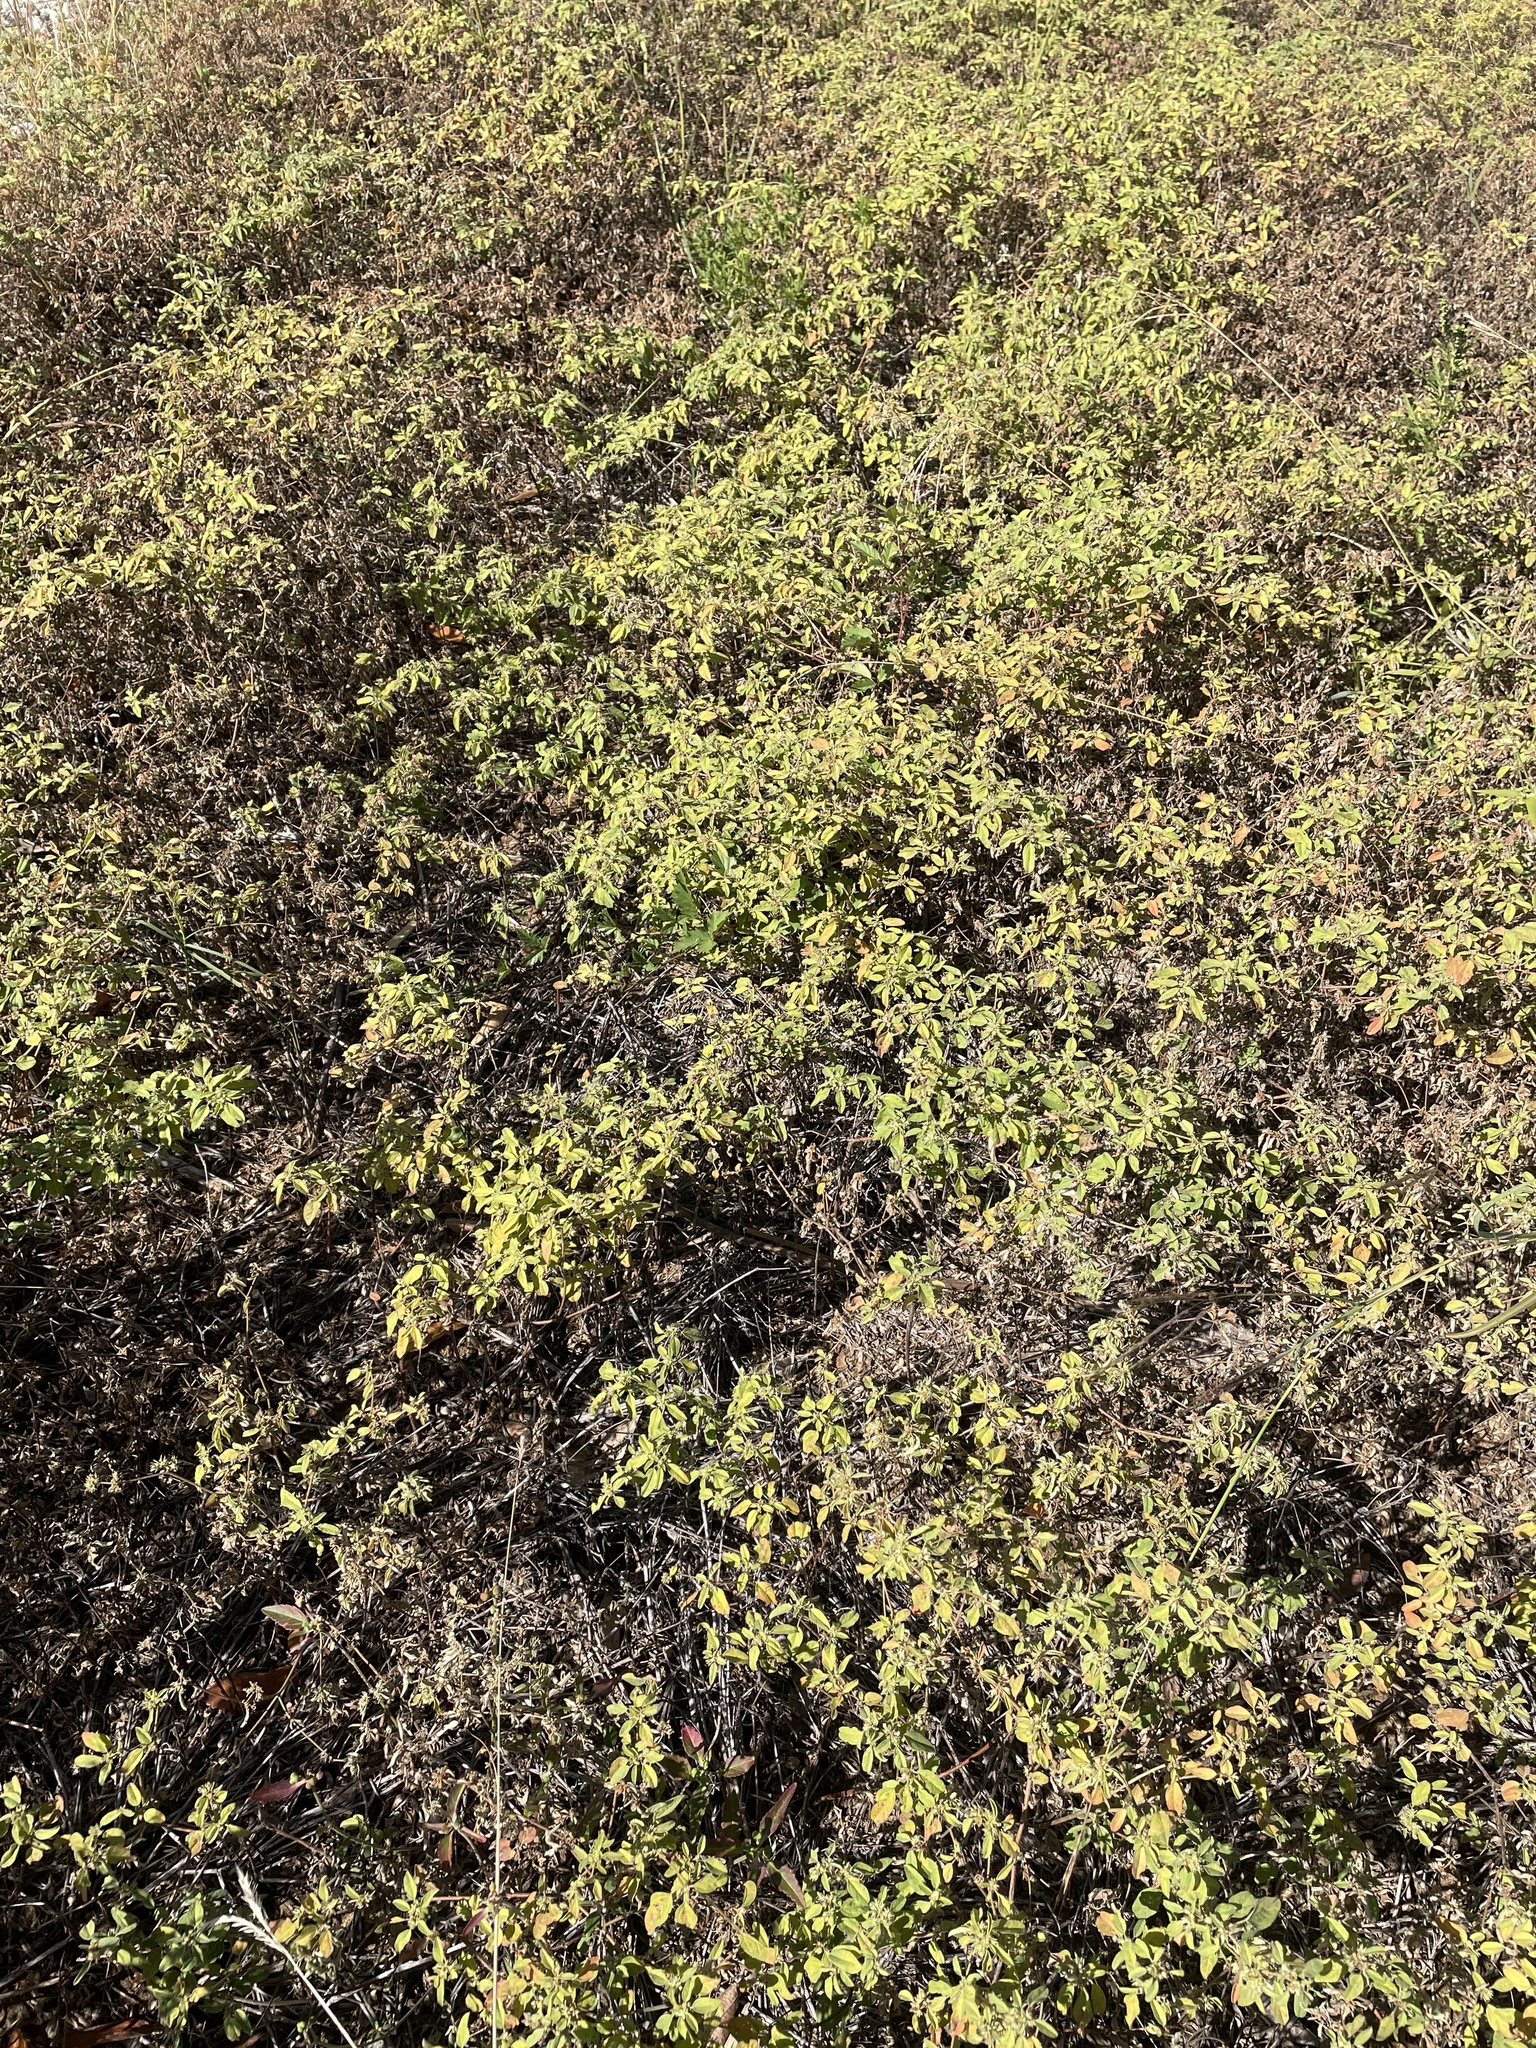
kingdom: Plantae
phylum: Tracheophyta
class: Magnoliopsida
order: Malpighiales
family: Euphorbiaceae
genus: Croton
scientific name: Croton monanthogynus
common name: One-seed croton
